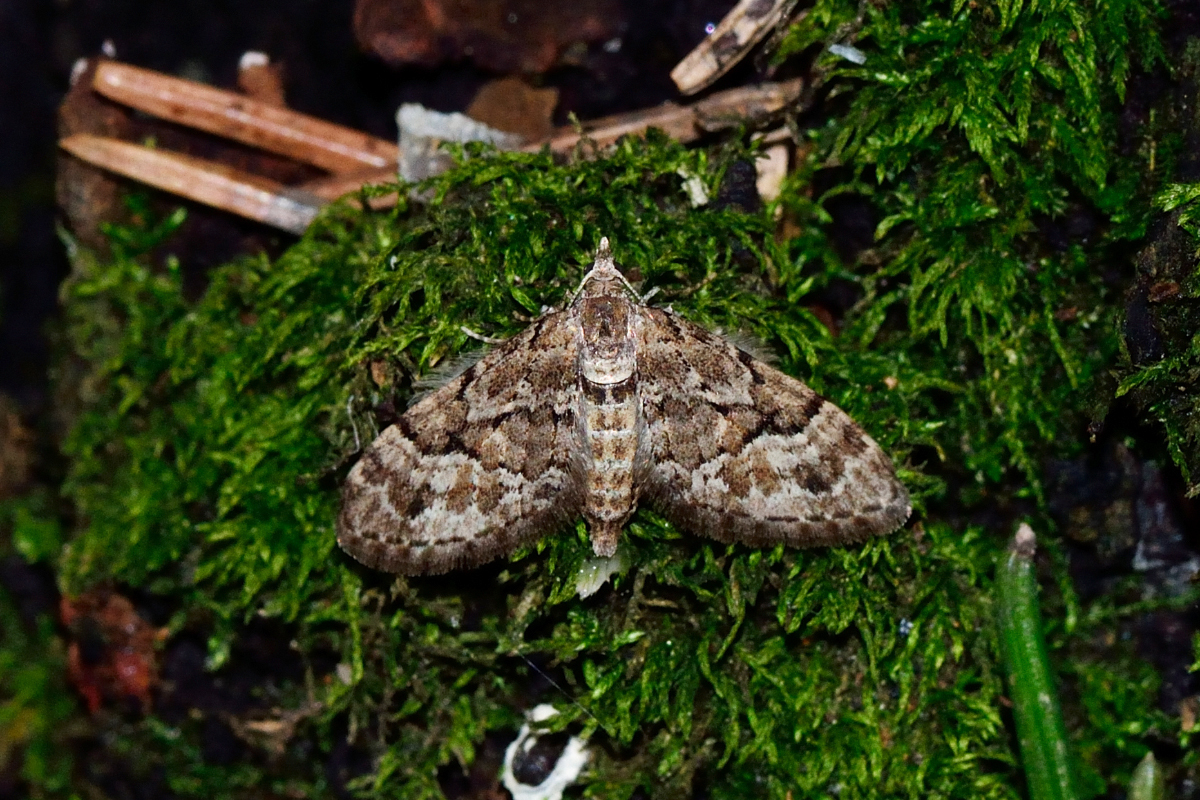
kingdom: Animalia
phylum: Arthropoda
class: Insecta
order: Lepidoptera
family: Geometridae
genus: Eupithecia
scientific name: Eupithecia lanceata
